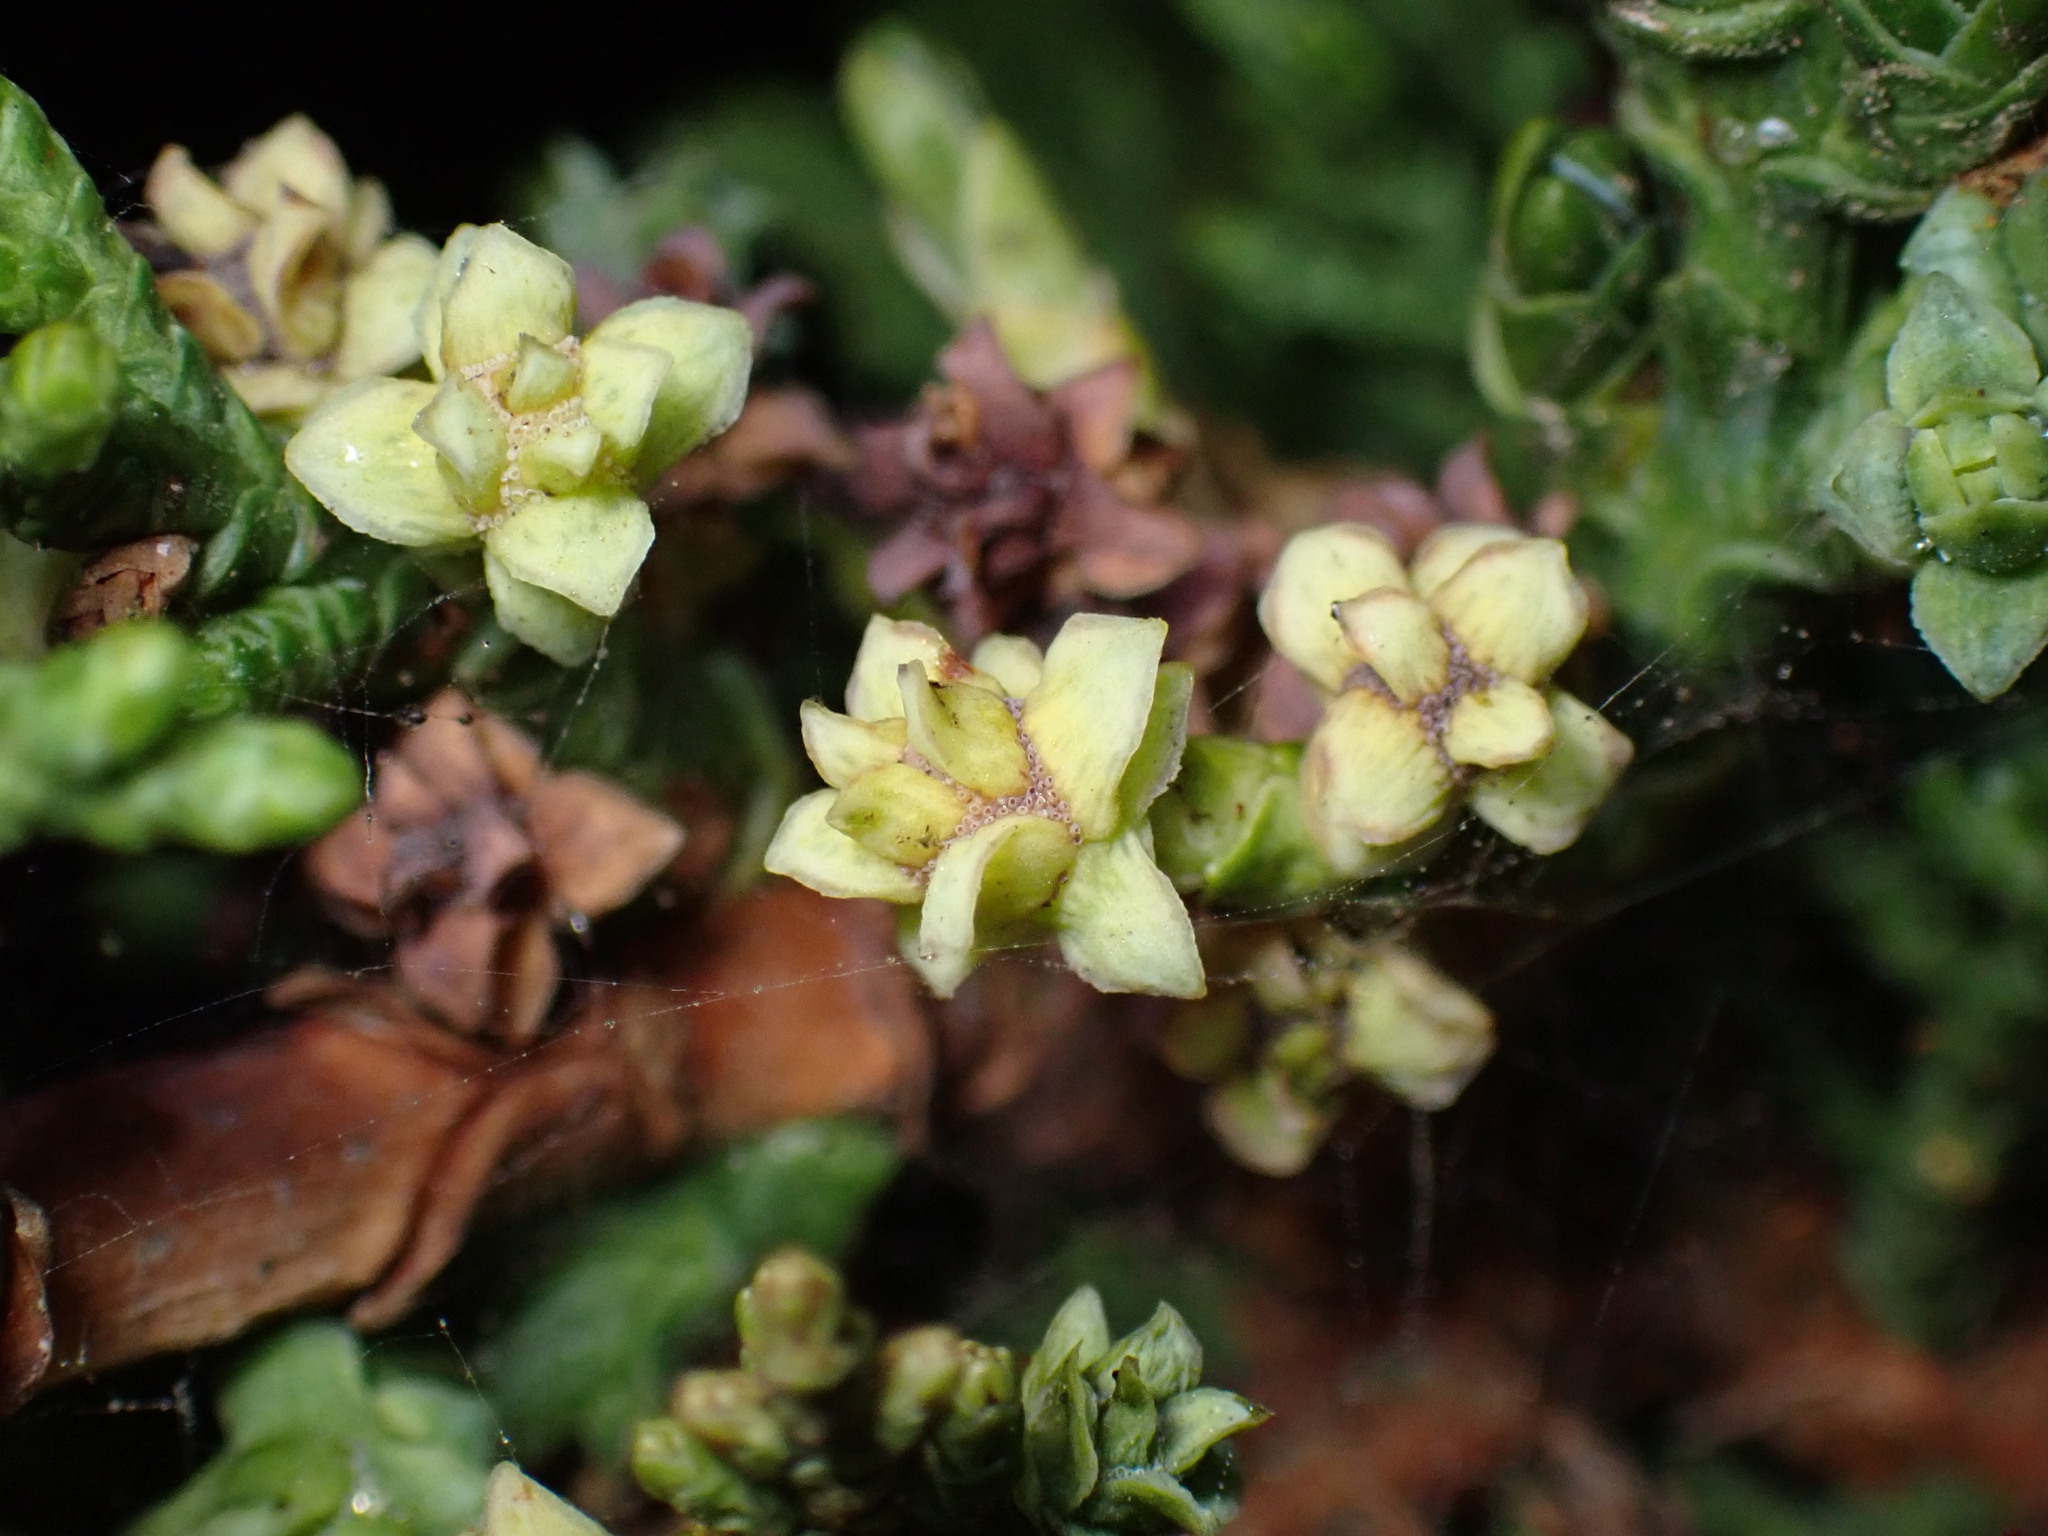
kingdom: Animalia
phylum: Arthropoda
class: Insecta
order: Diptera
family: Cecidomyiidae
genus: Chamaediplosis
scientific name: Chamaediplosis nootkatensis
